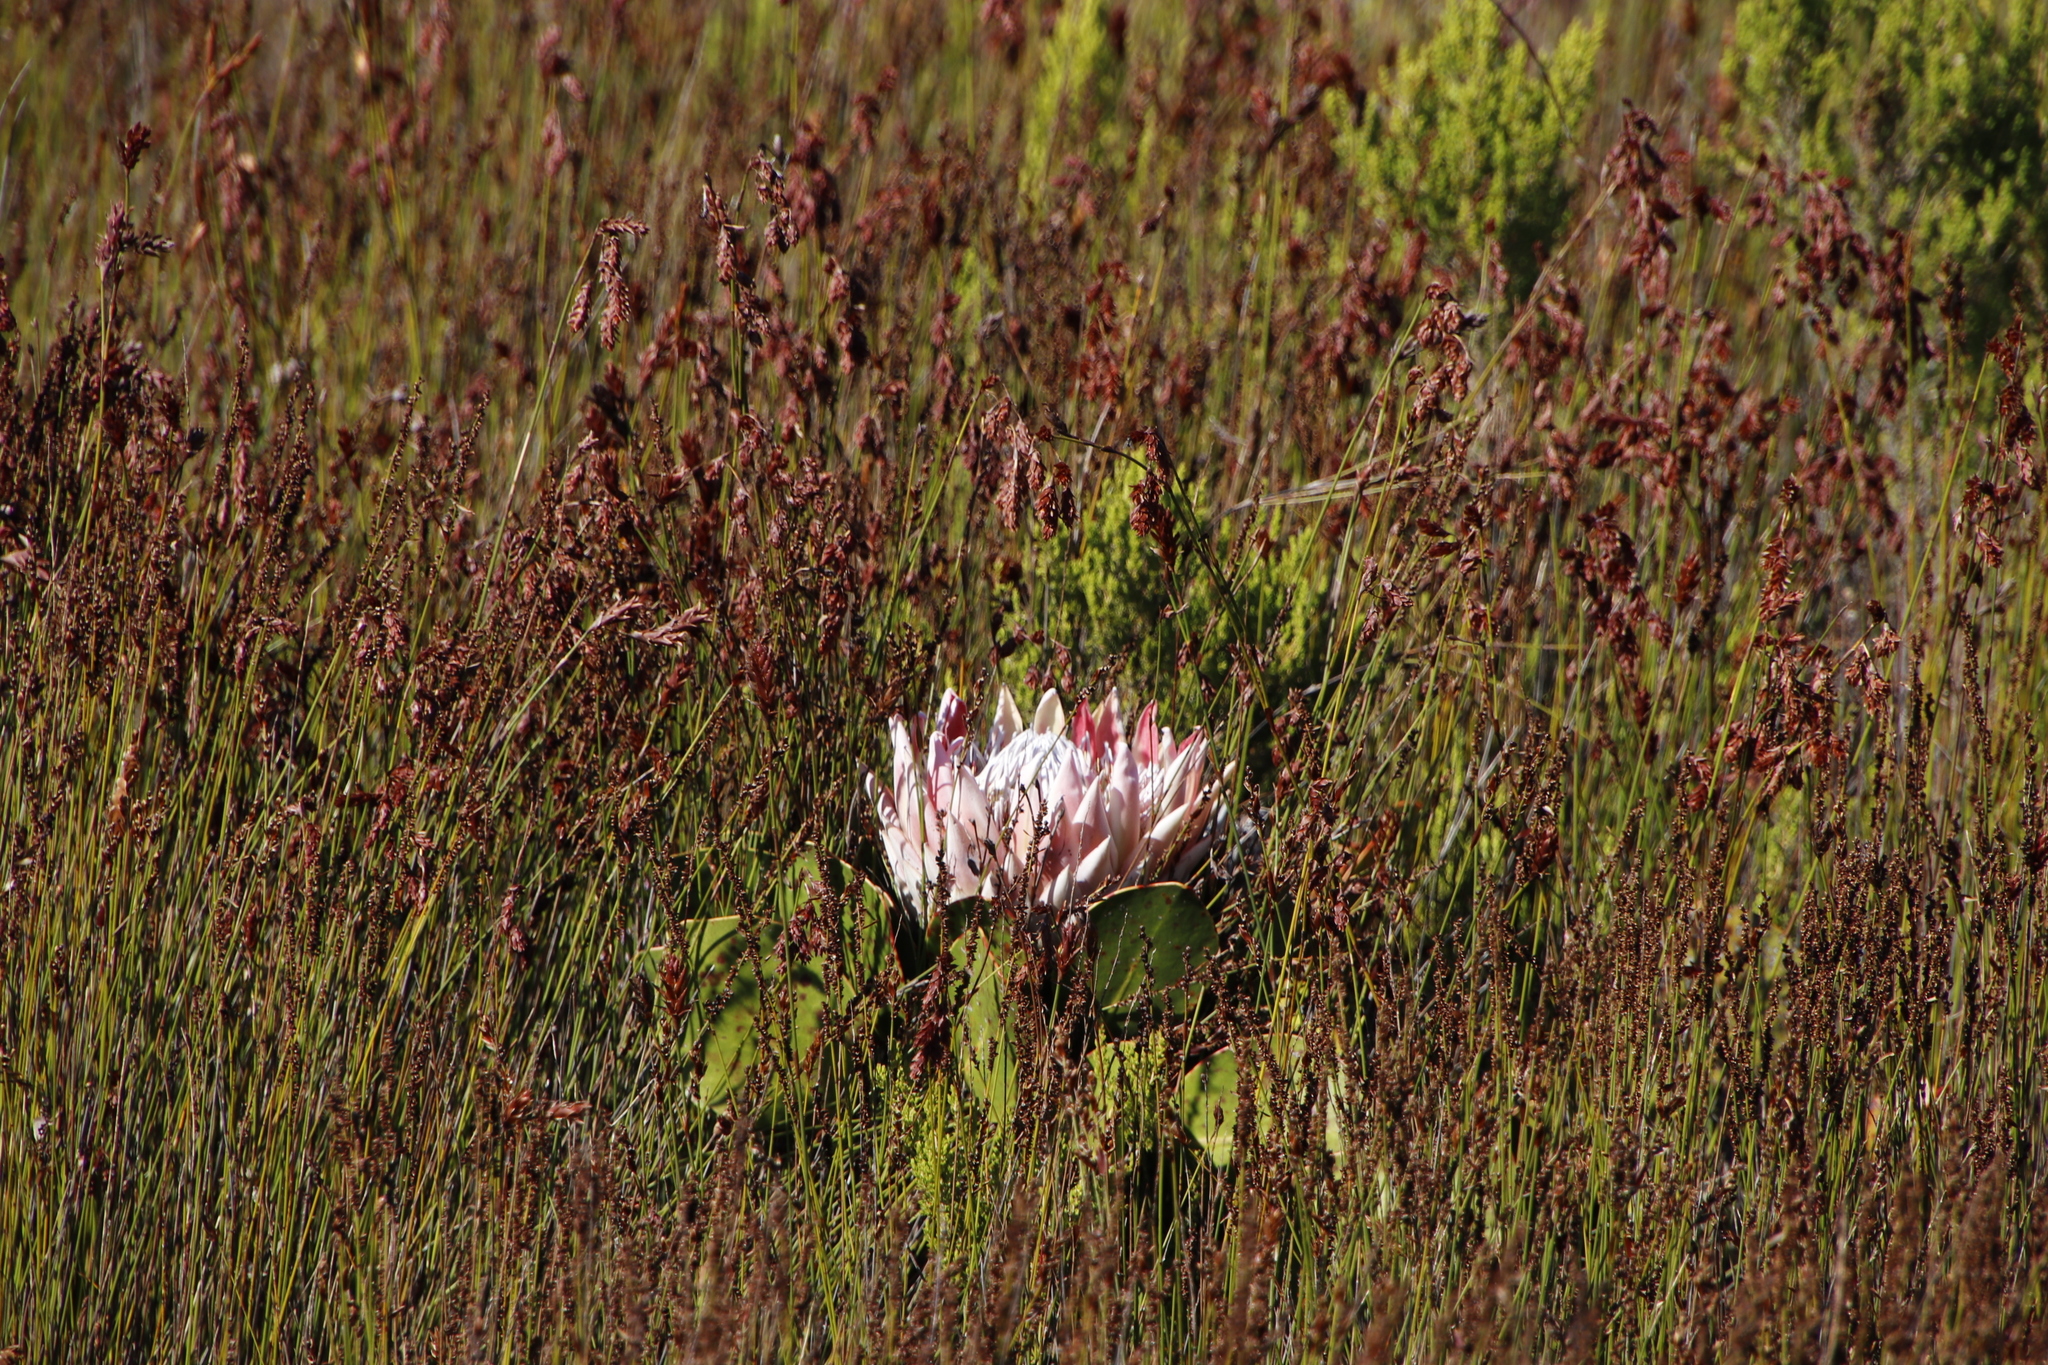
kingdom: Plantae
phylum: Tracheophyta
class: Magnoliopsida
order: Proteales
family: Proteaceae
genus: Protea
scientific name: Protea cynaroides
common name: King protea
